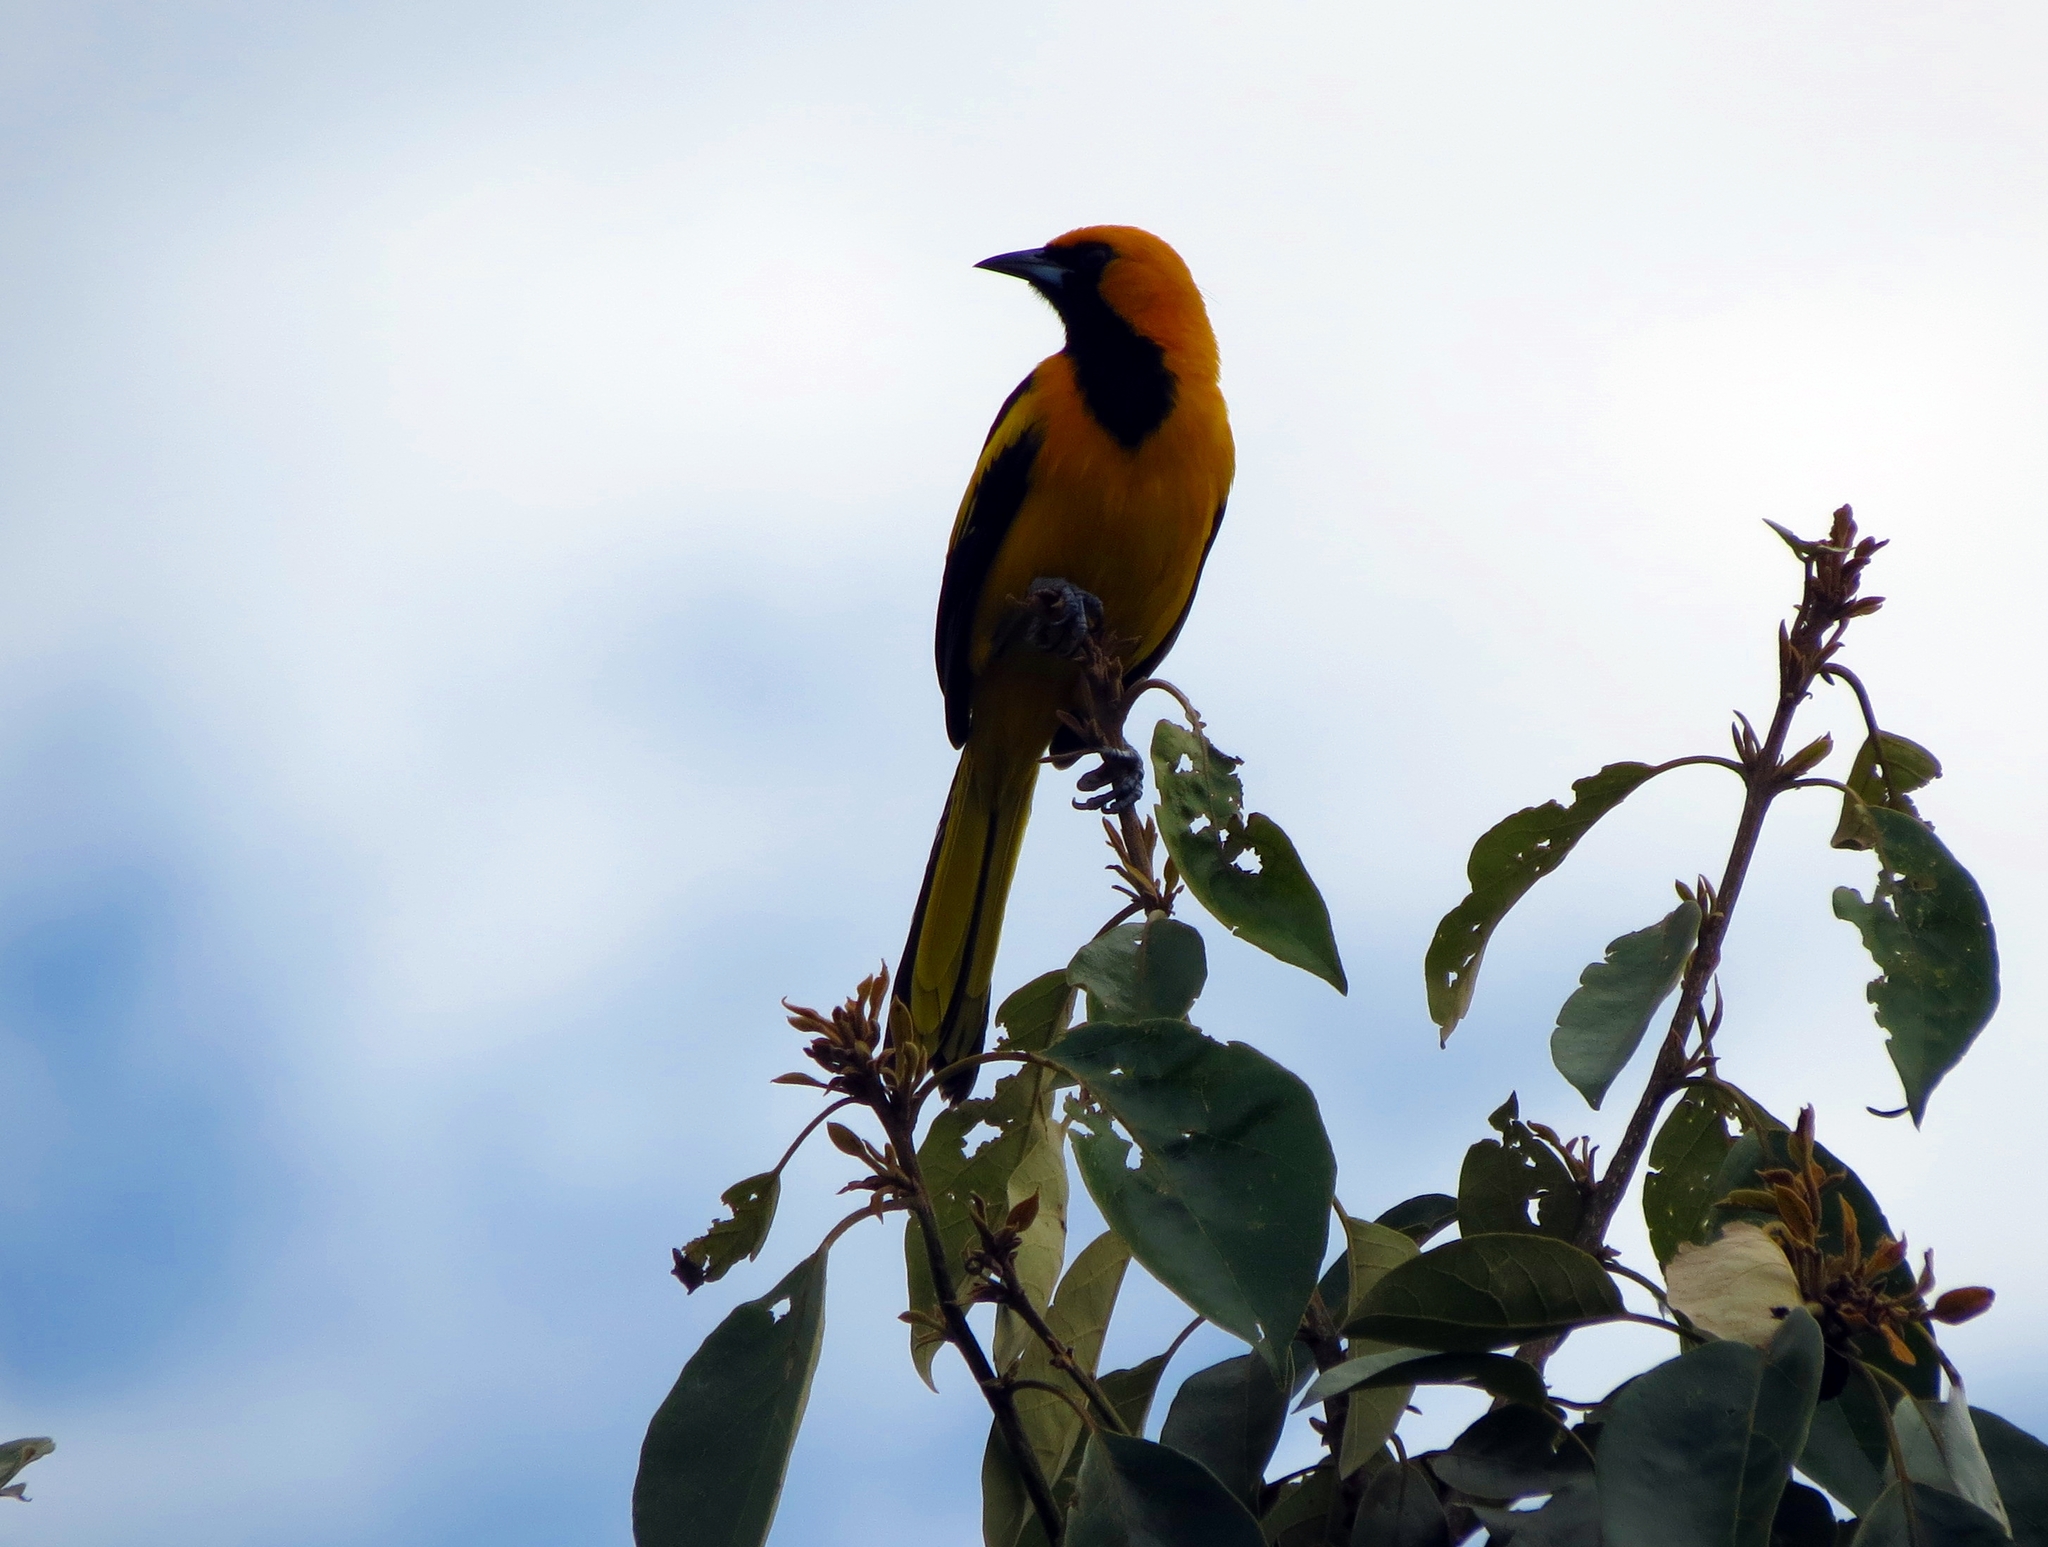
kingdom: Animalia
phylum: Chordata
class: Aves
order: Passeriformes
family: Icteridae
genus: Icterus
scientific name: Icterus mesomelas
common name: Yellow-tailed oriole
